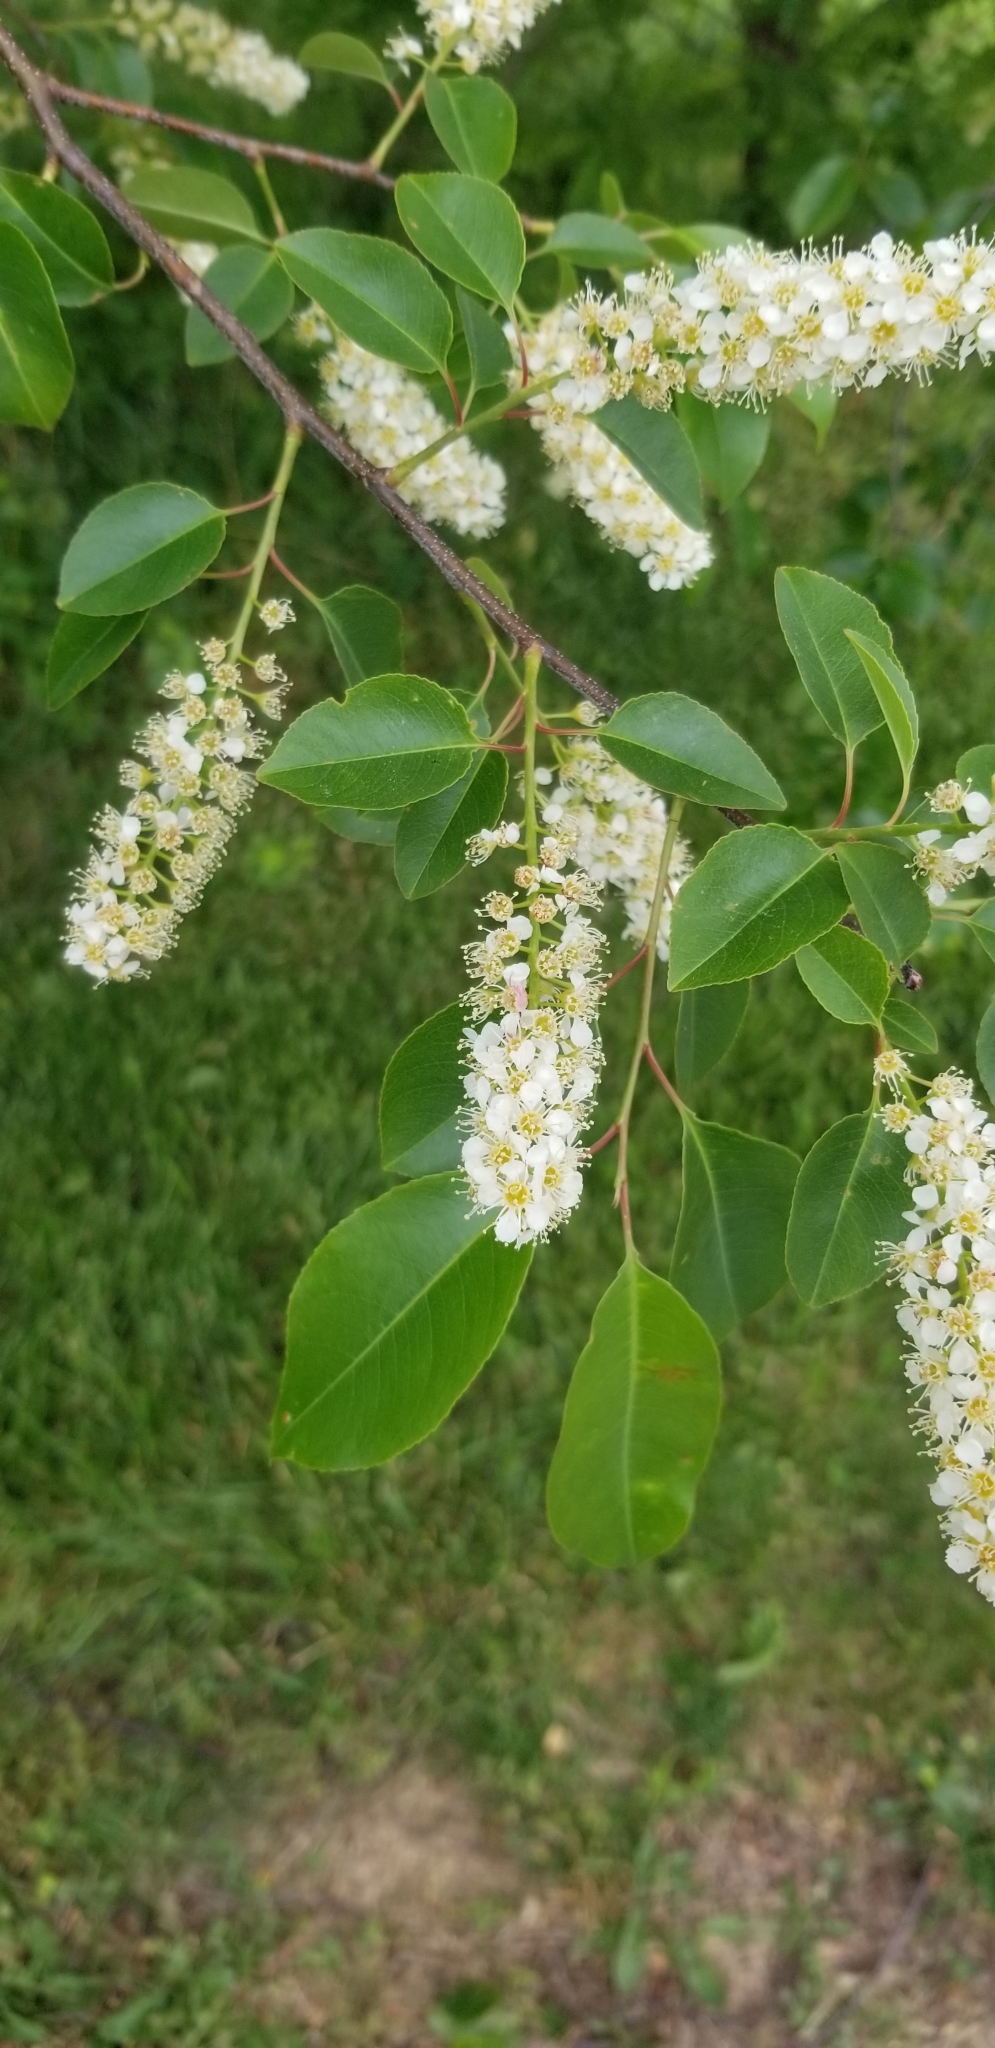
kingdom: Plantae
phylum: Tracheophyta
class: Magnoliopsida
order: Rosales
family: Rosaceae
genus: Prunus
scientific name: Prunus serotina
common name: Black cherry
